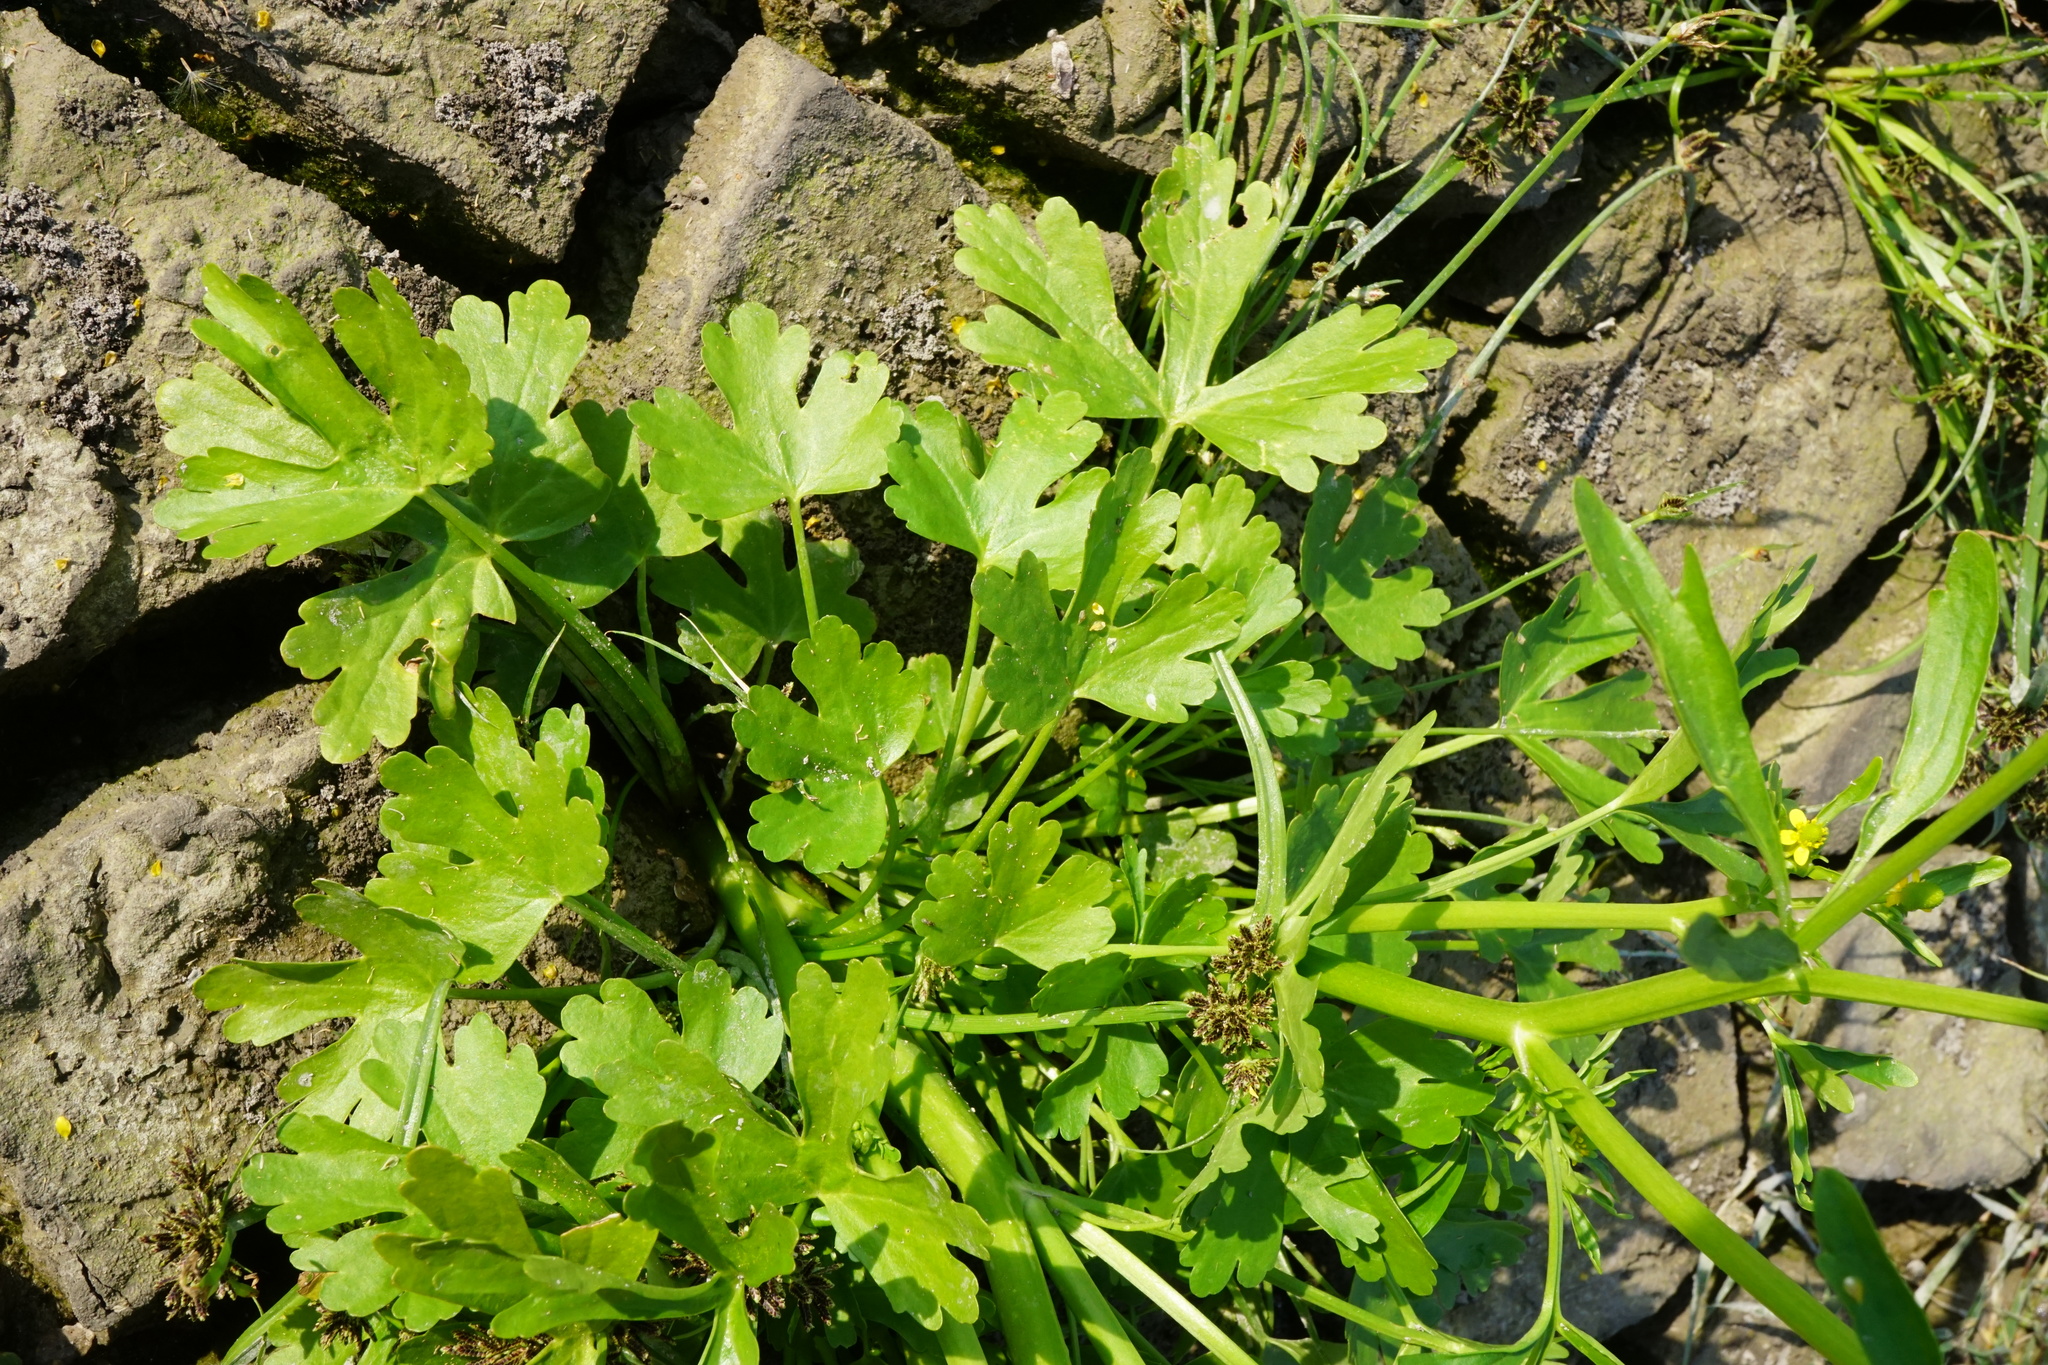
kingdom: Plantae
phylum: Tracheophyta
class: Magnoliopsida
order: Ranunculales
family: Ranunculaceae
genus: Ranunculus
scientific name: Ranunculus sceleratus
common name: Celery-leaved buttercup
